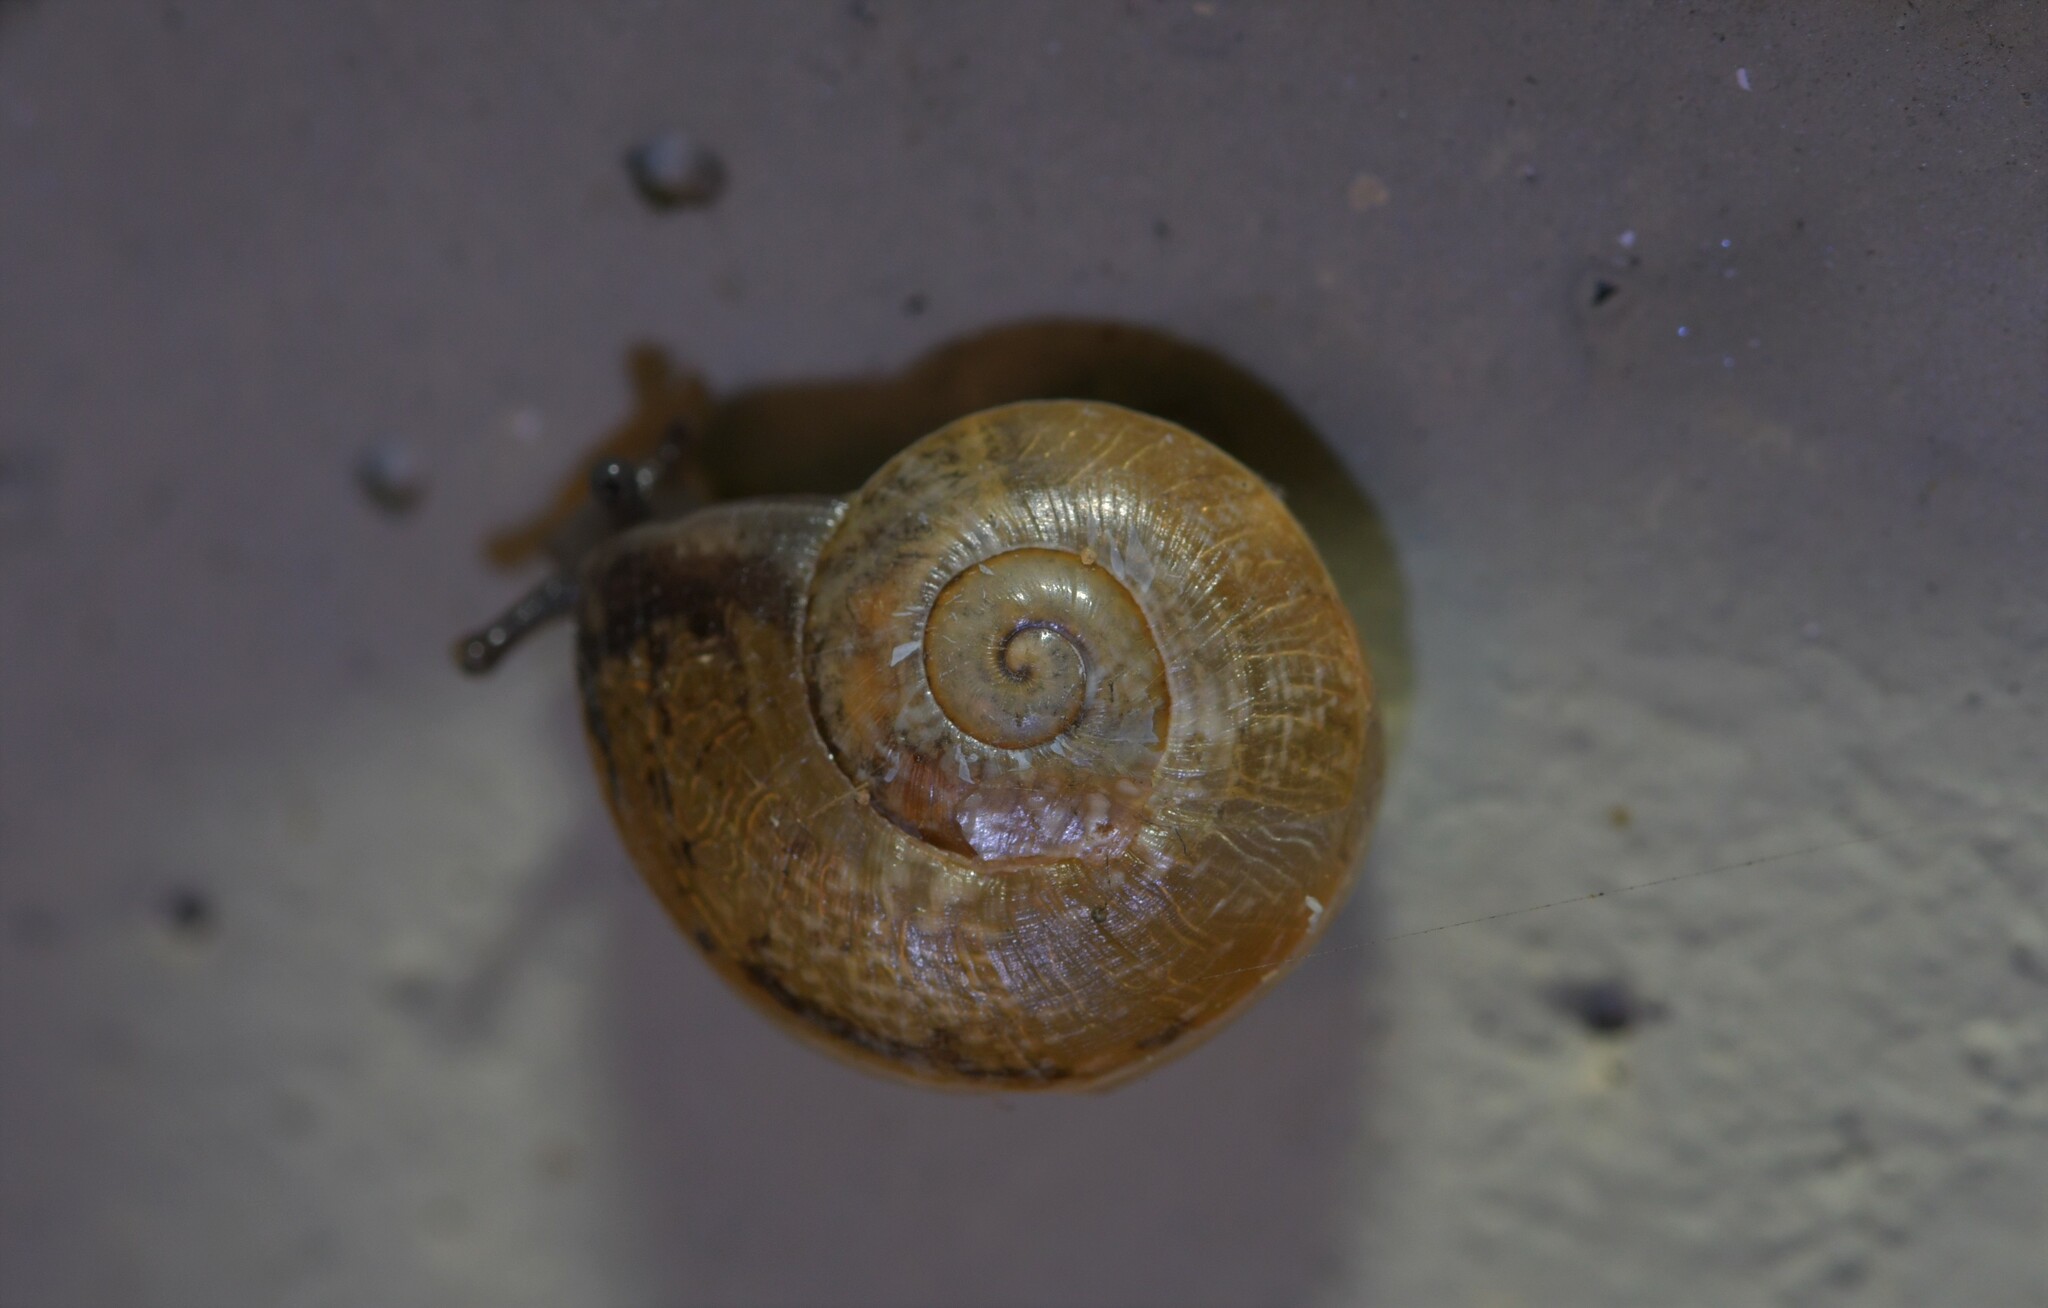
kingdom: Animalia
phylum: Mollusca
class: Gastropoda
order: Stylommatophora
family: Helicidae
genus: Otala
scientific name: Otala lactea
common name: Milk snail
